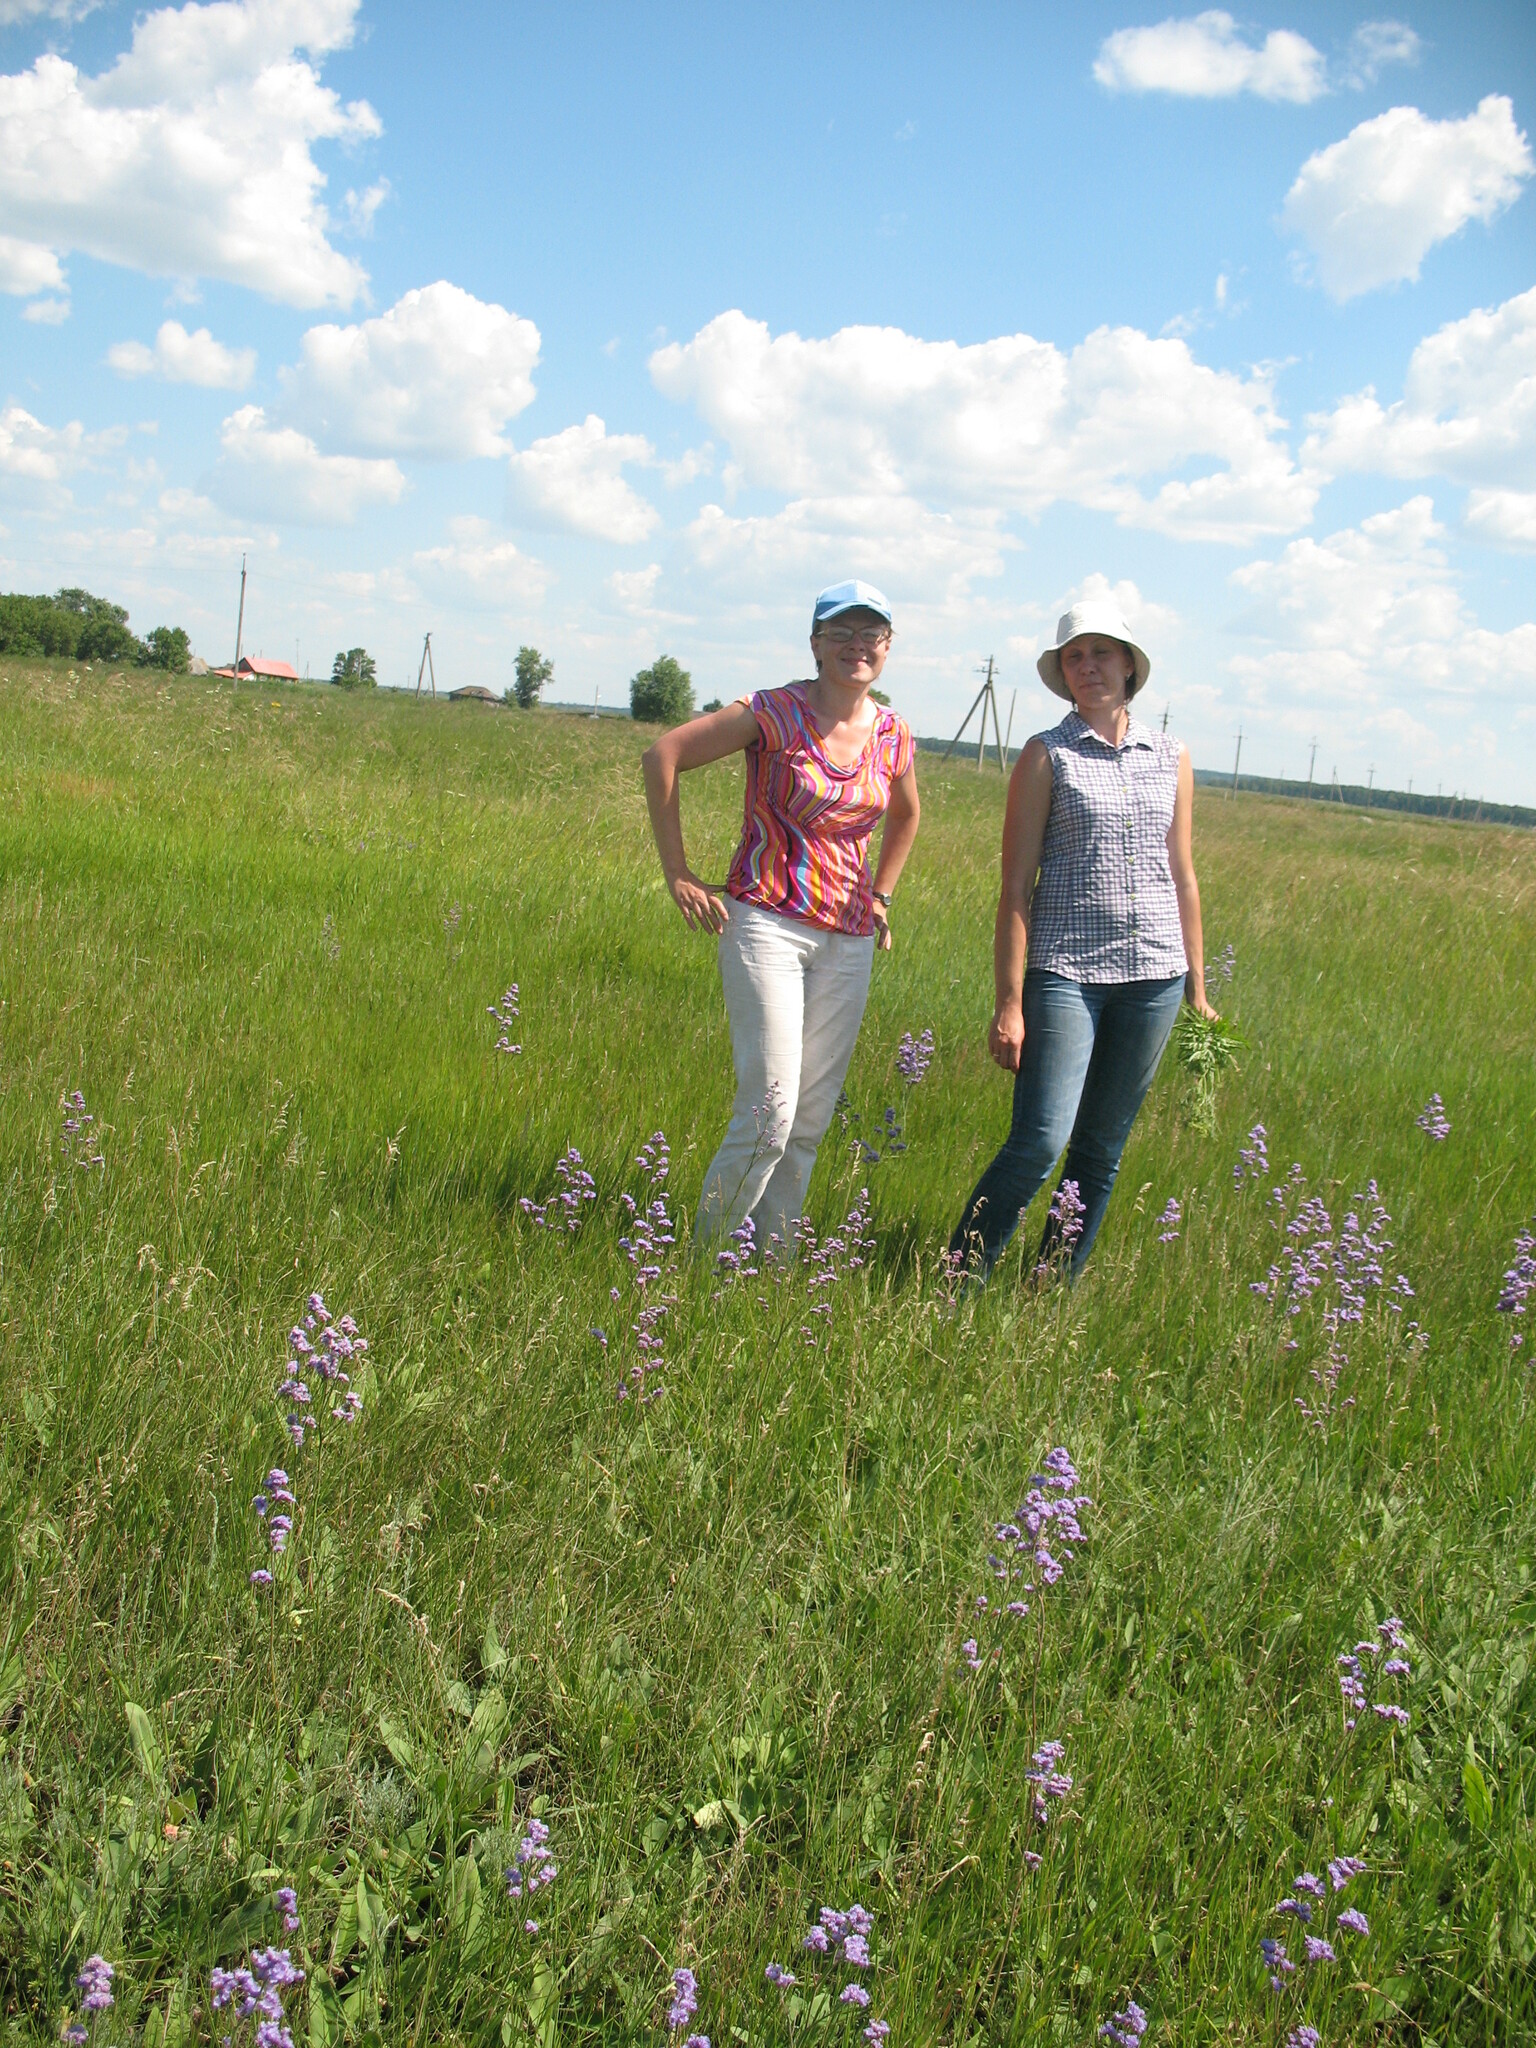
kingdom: Plantae
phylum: Tracheophyta
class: Magnoliopsida
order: Caryophyllales
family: Plumbaginaceae
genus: Limonium
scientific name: Limonium tomentellum
